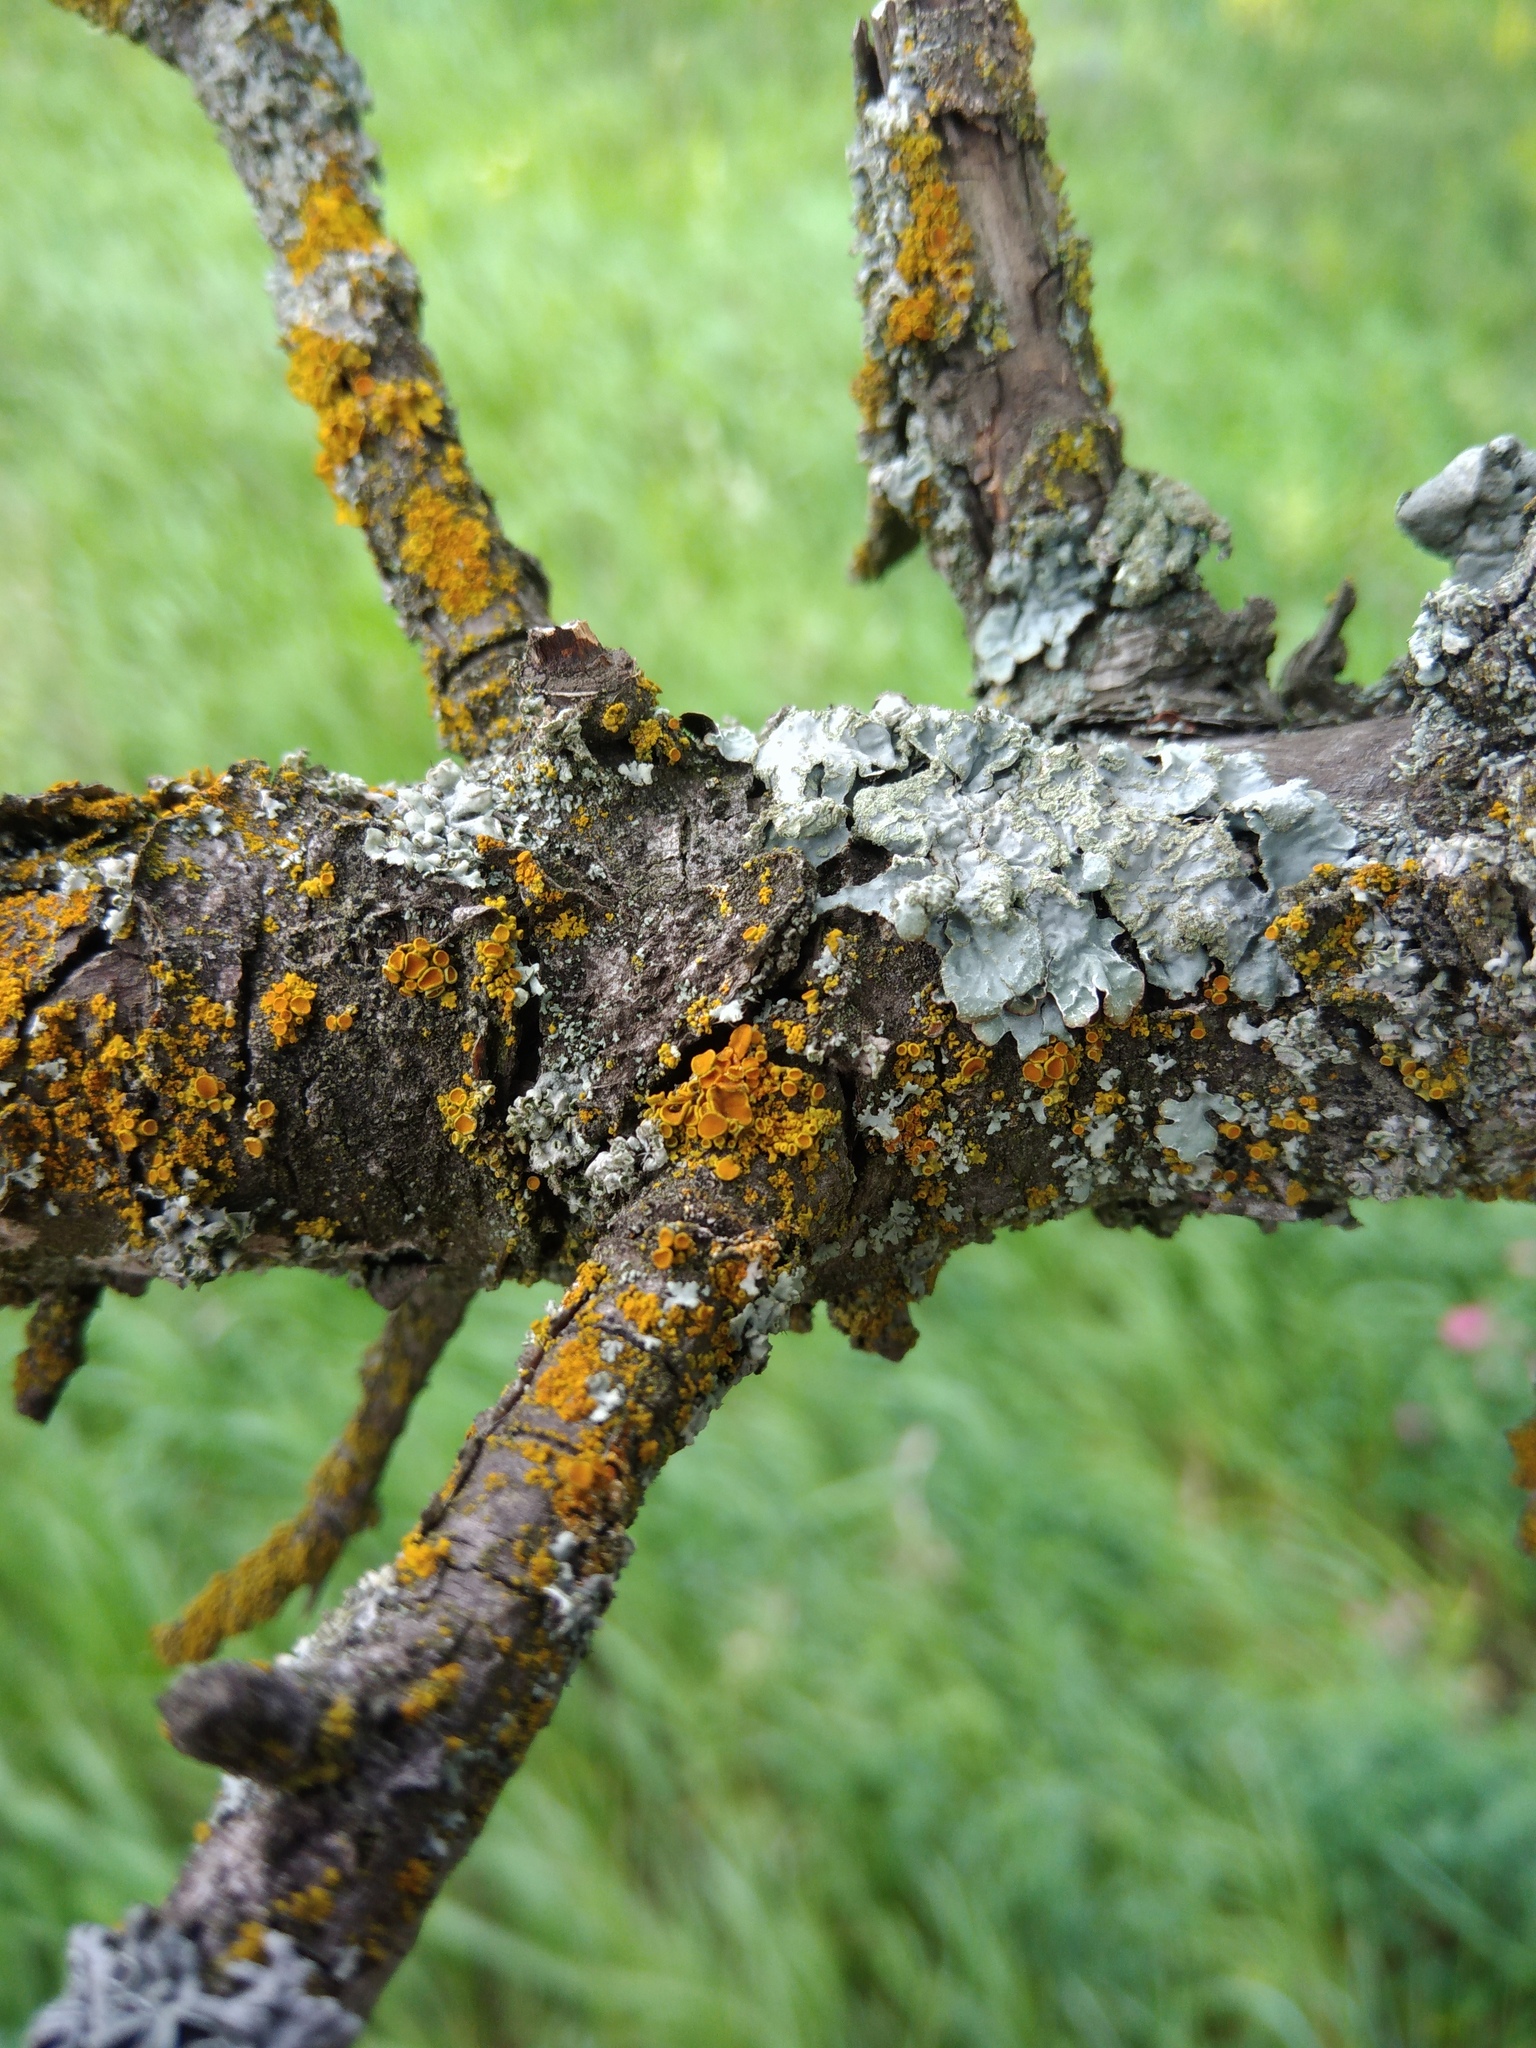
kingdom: Fungi
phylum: Ascomycota
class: Lecanoromycetes
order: Teloschistales
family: Teloschistaceae
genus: Polycauliona
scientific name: Polycauliona polycarpa
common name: Pin-cushion sunburst lichen
